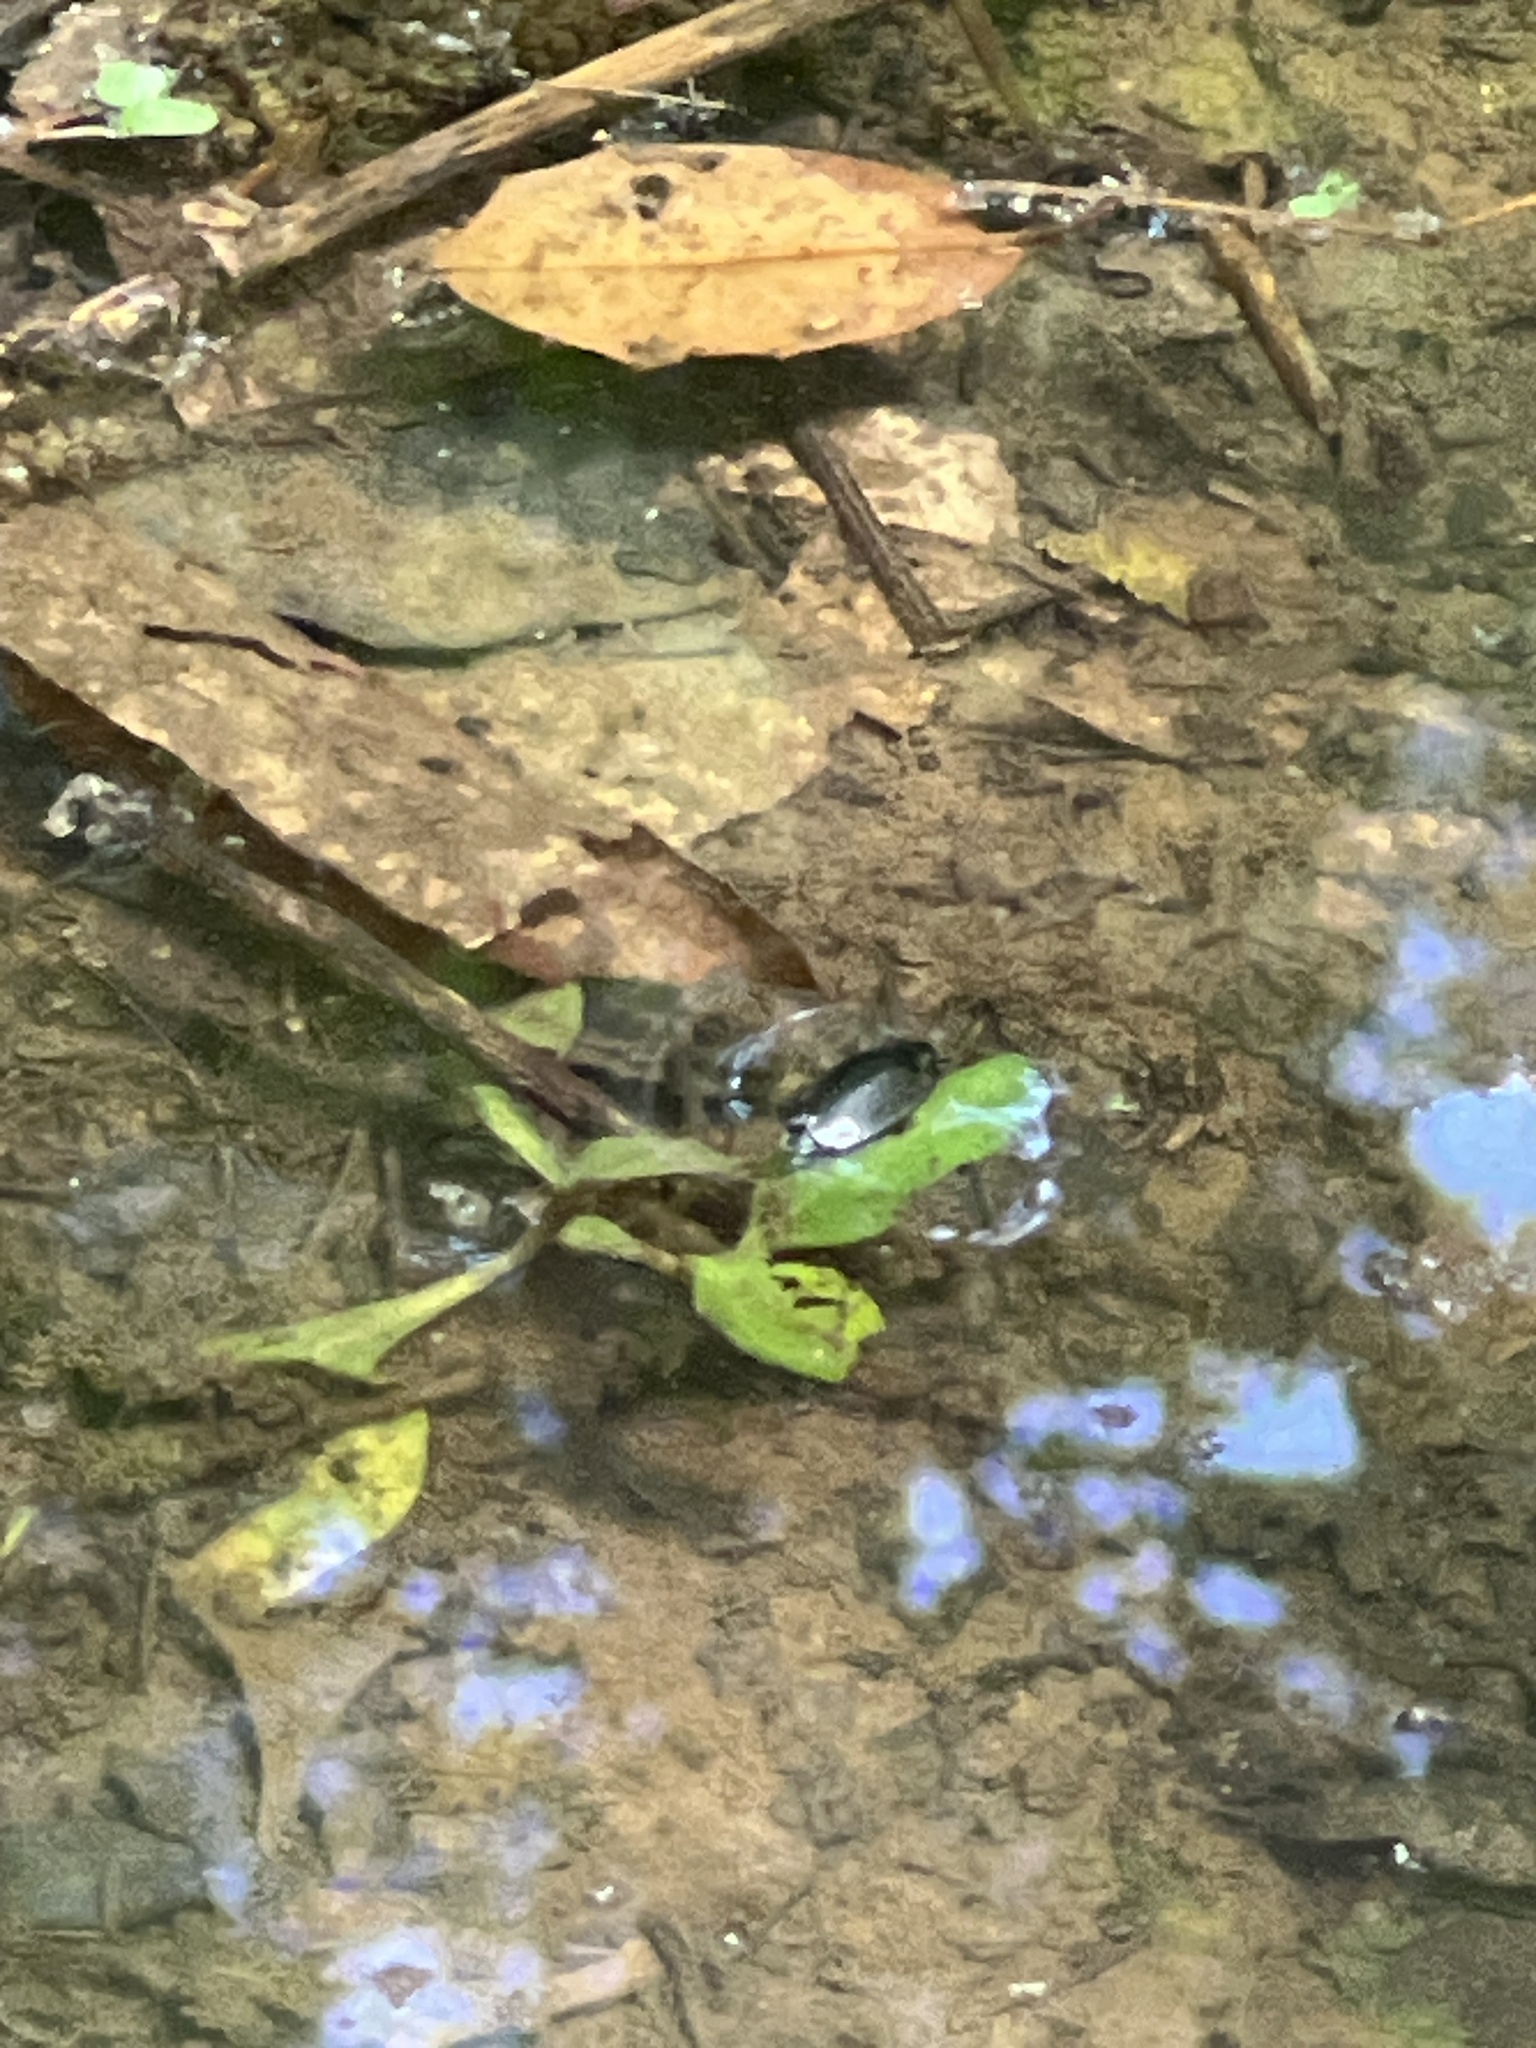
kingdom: Animalia
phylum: Arthropoda
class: Insecta
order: Coleoptera
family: Gyrinidae
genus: Dineutus
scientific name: Dineutus
